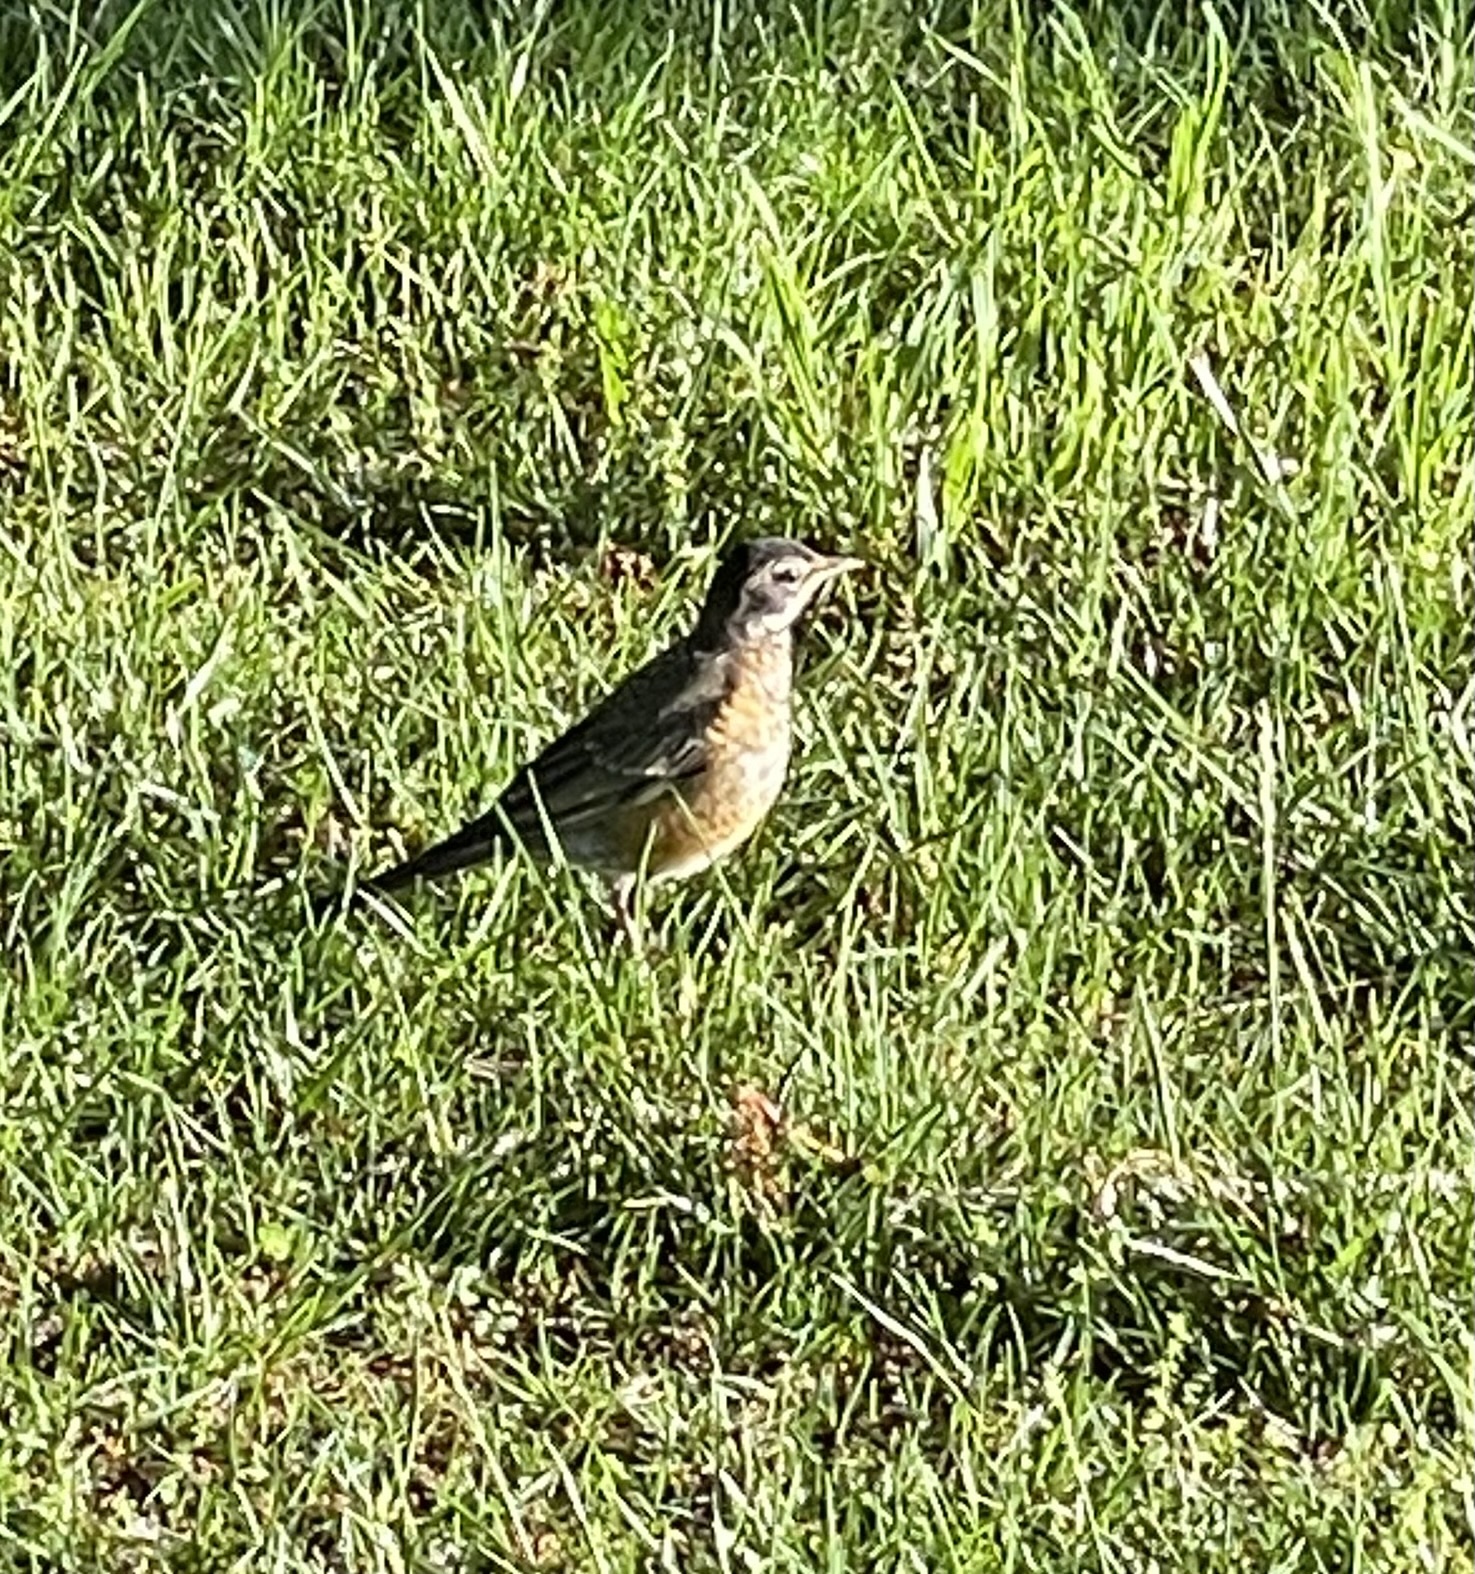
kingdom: Animalia
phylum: Chordata
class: Aves
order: Passeriformes
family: Turdidae
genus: Turdus
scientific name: Turdus migratorius
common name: American robin
